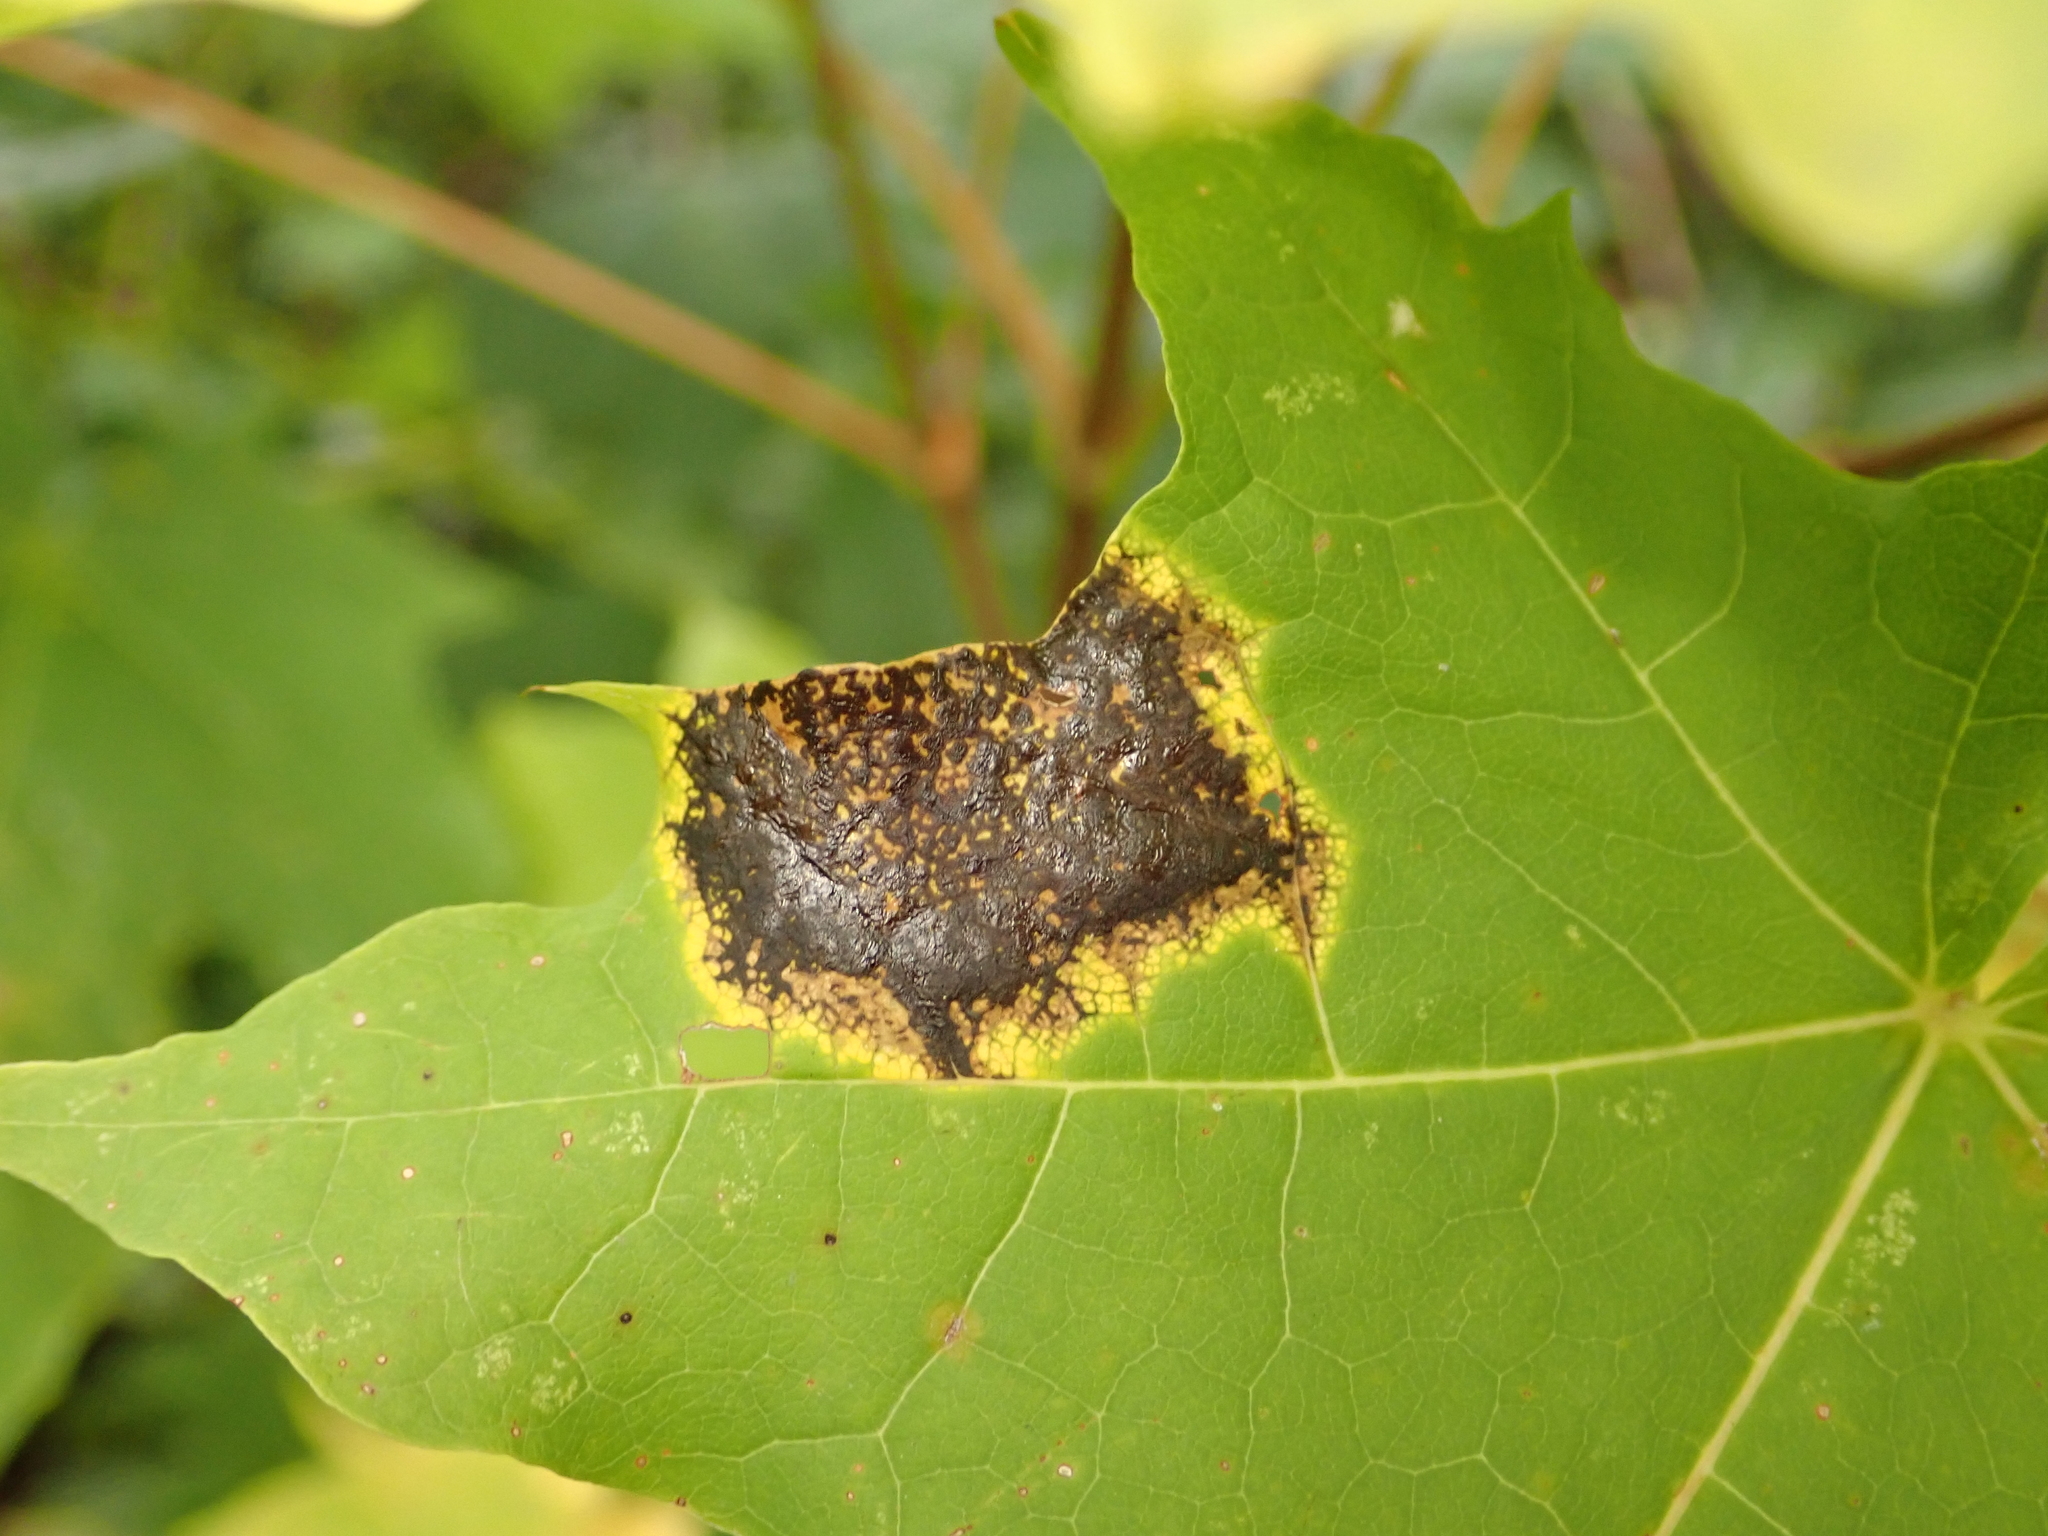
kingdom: Fungi
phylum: Ascomycota
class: Leotiomycetes
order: Rhytismatales
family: Rhytismataceae
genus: Rhytisma
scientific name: Rhytisma acerinum
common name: European tar spot
